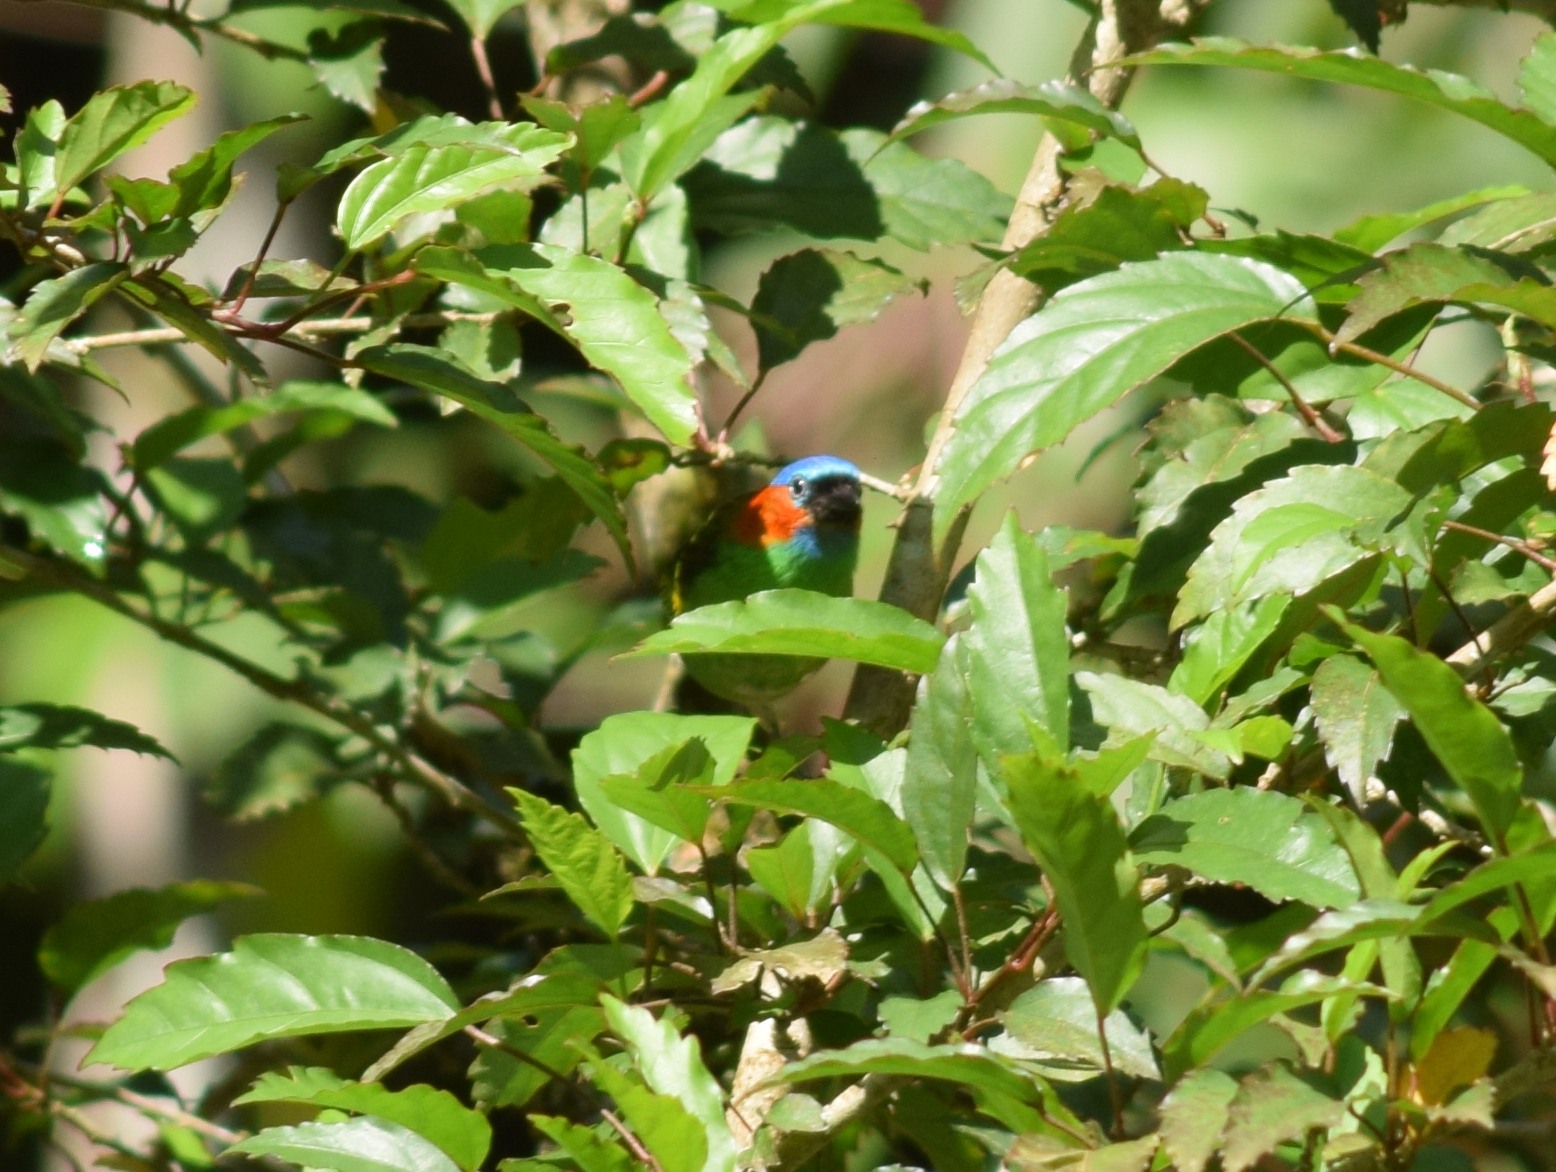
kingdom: Animalia
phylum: Chordata
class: Aves
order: Passeriformes
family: Thraupidae
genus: Tangara
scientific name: Tangara cyanocephala
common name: Red-necked tanager
